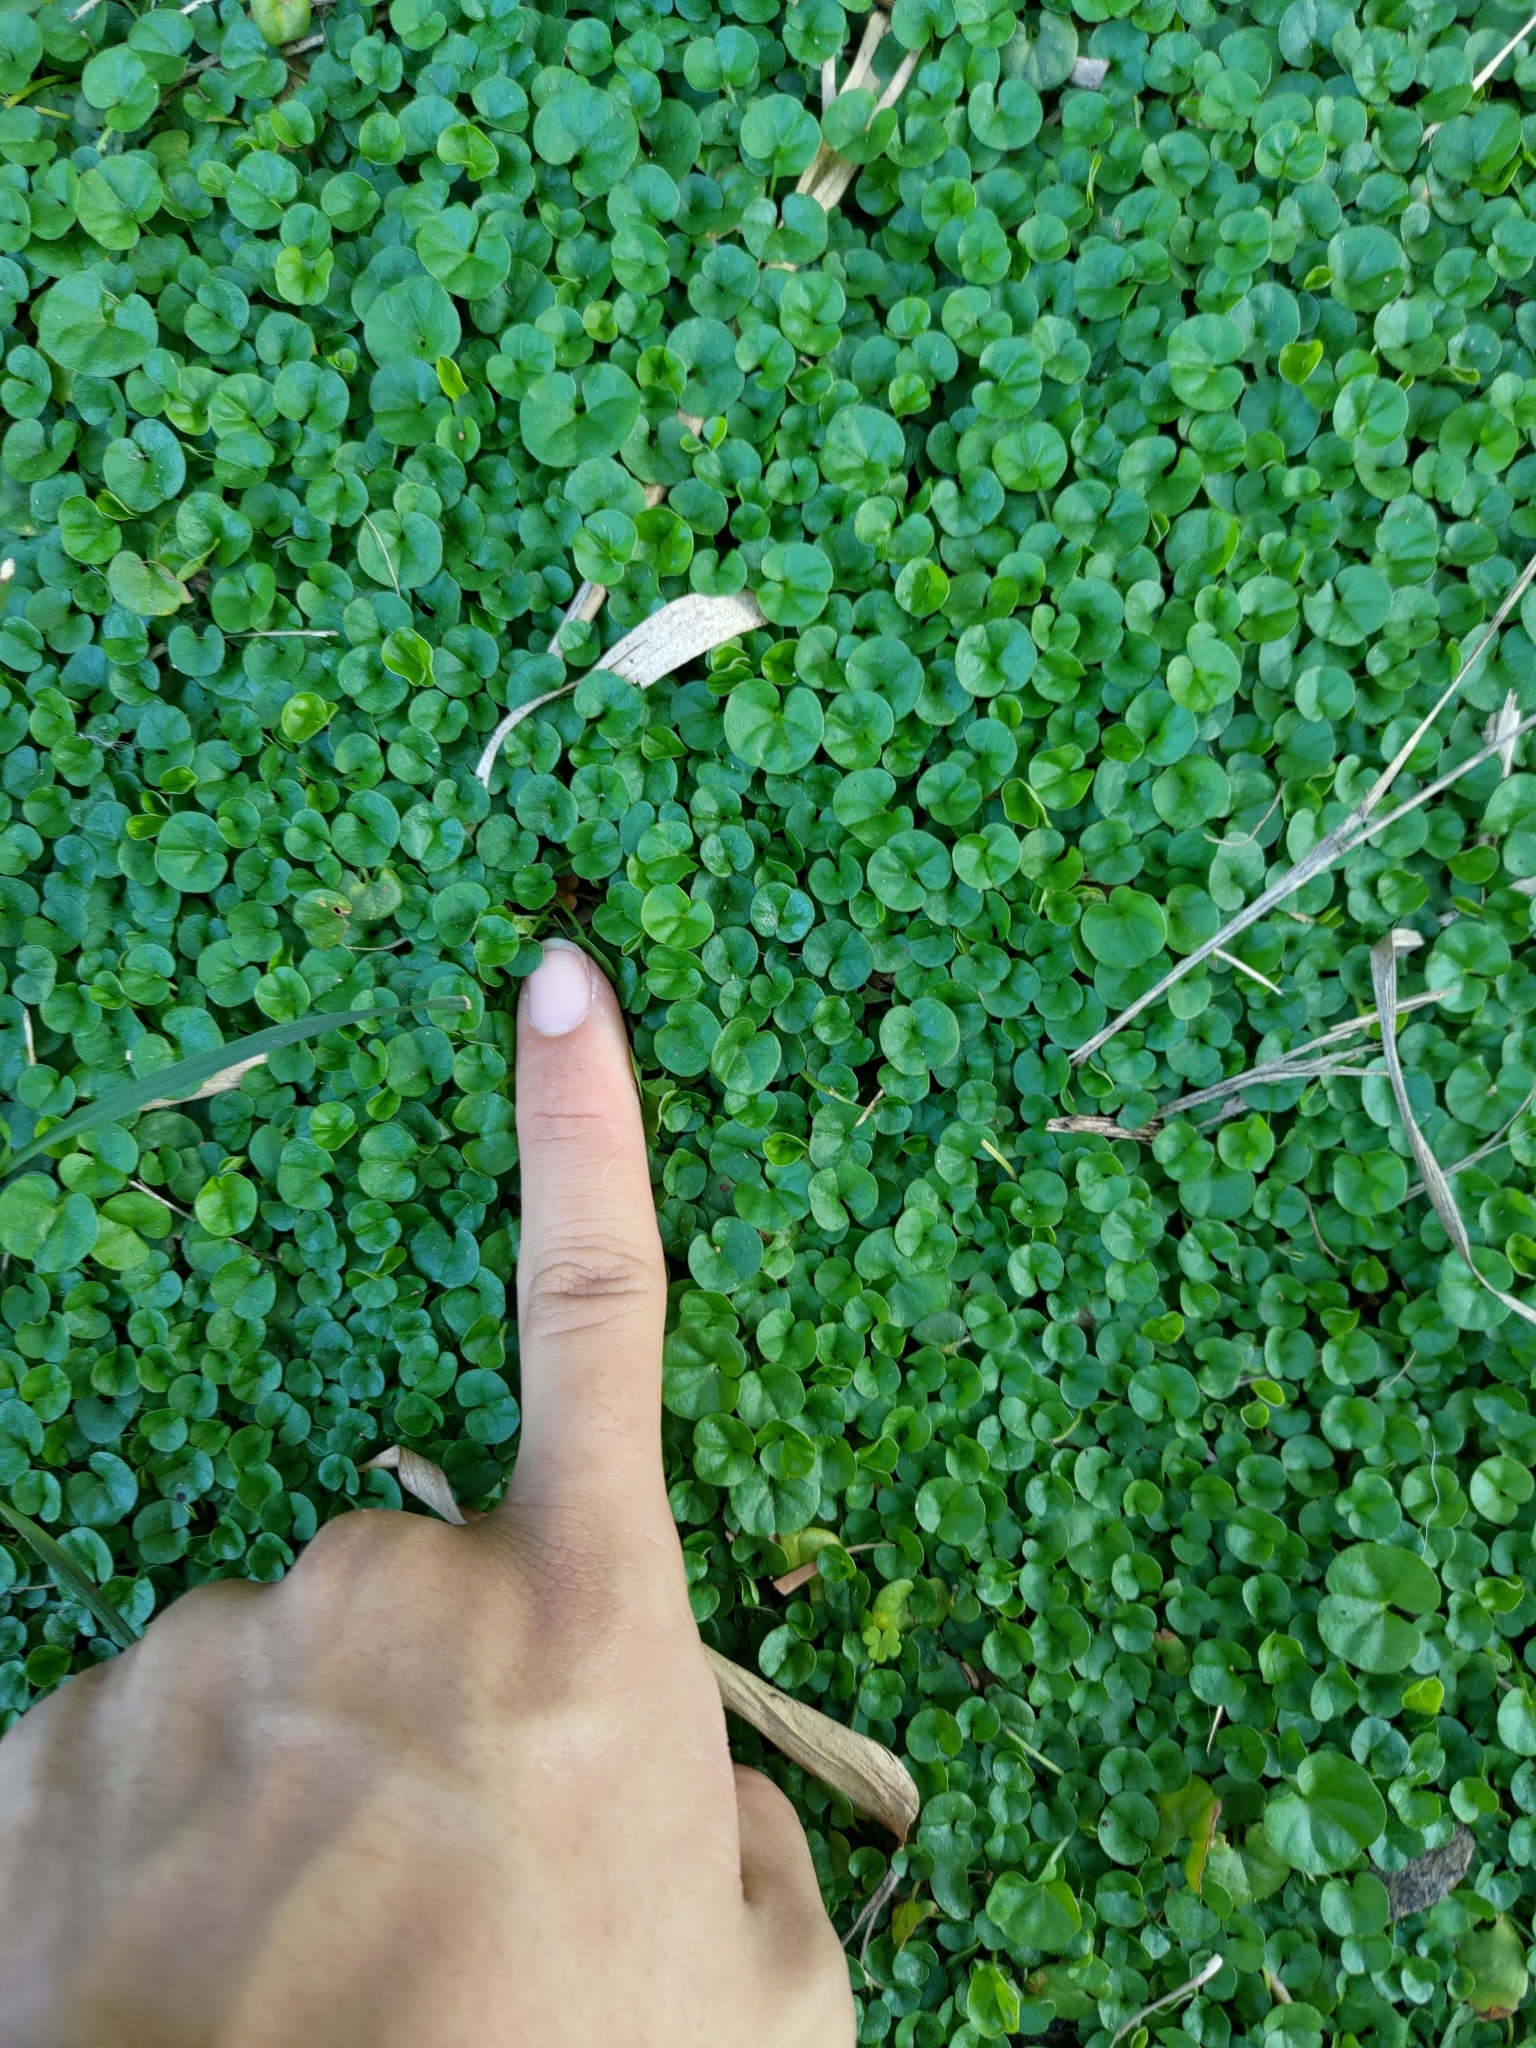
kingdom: Plantae
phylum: Tracheophyta
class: Magnoliopsida
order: Solanales
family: Convolvulaceae
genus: Dichondra
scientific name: Dichondra micrantha
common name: Kidneyweed
